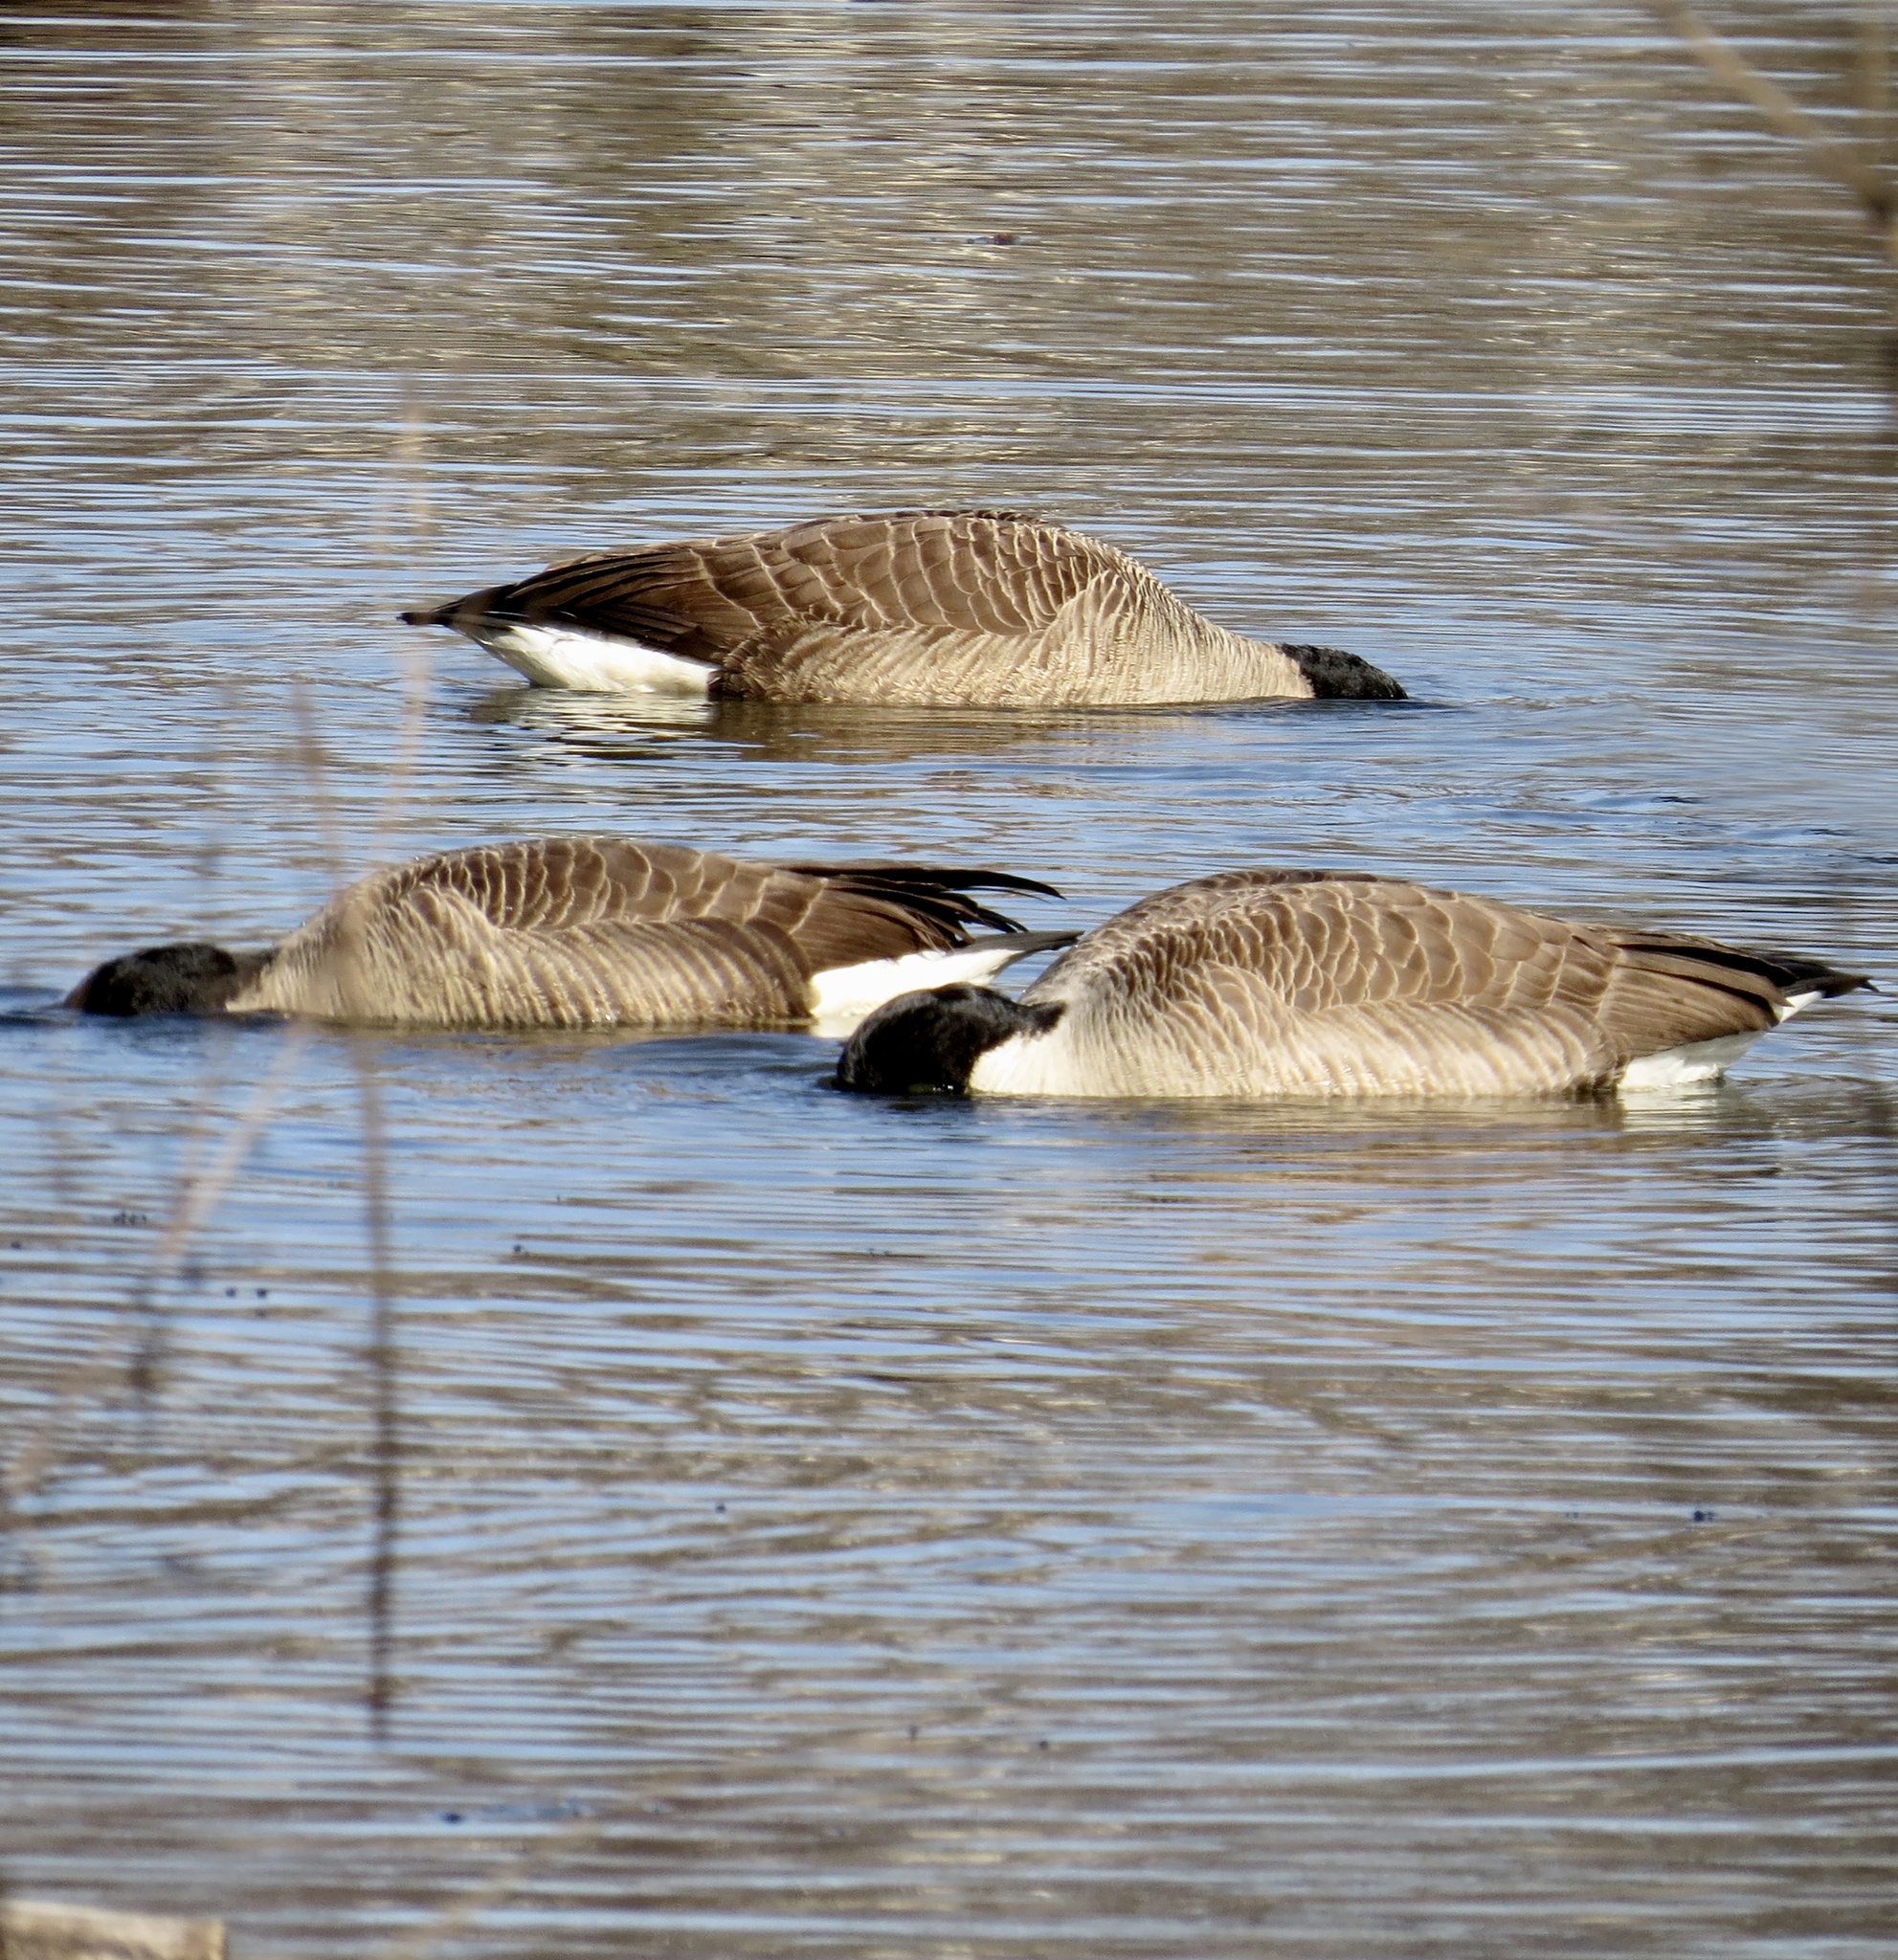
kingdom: Animalia
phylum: Chordata
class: Aves
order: Anseriformes
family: Anatidae
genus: Branta
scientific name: Branta canadensis
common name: Canada goose
